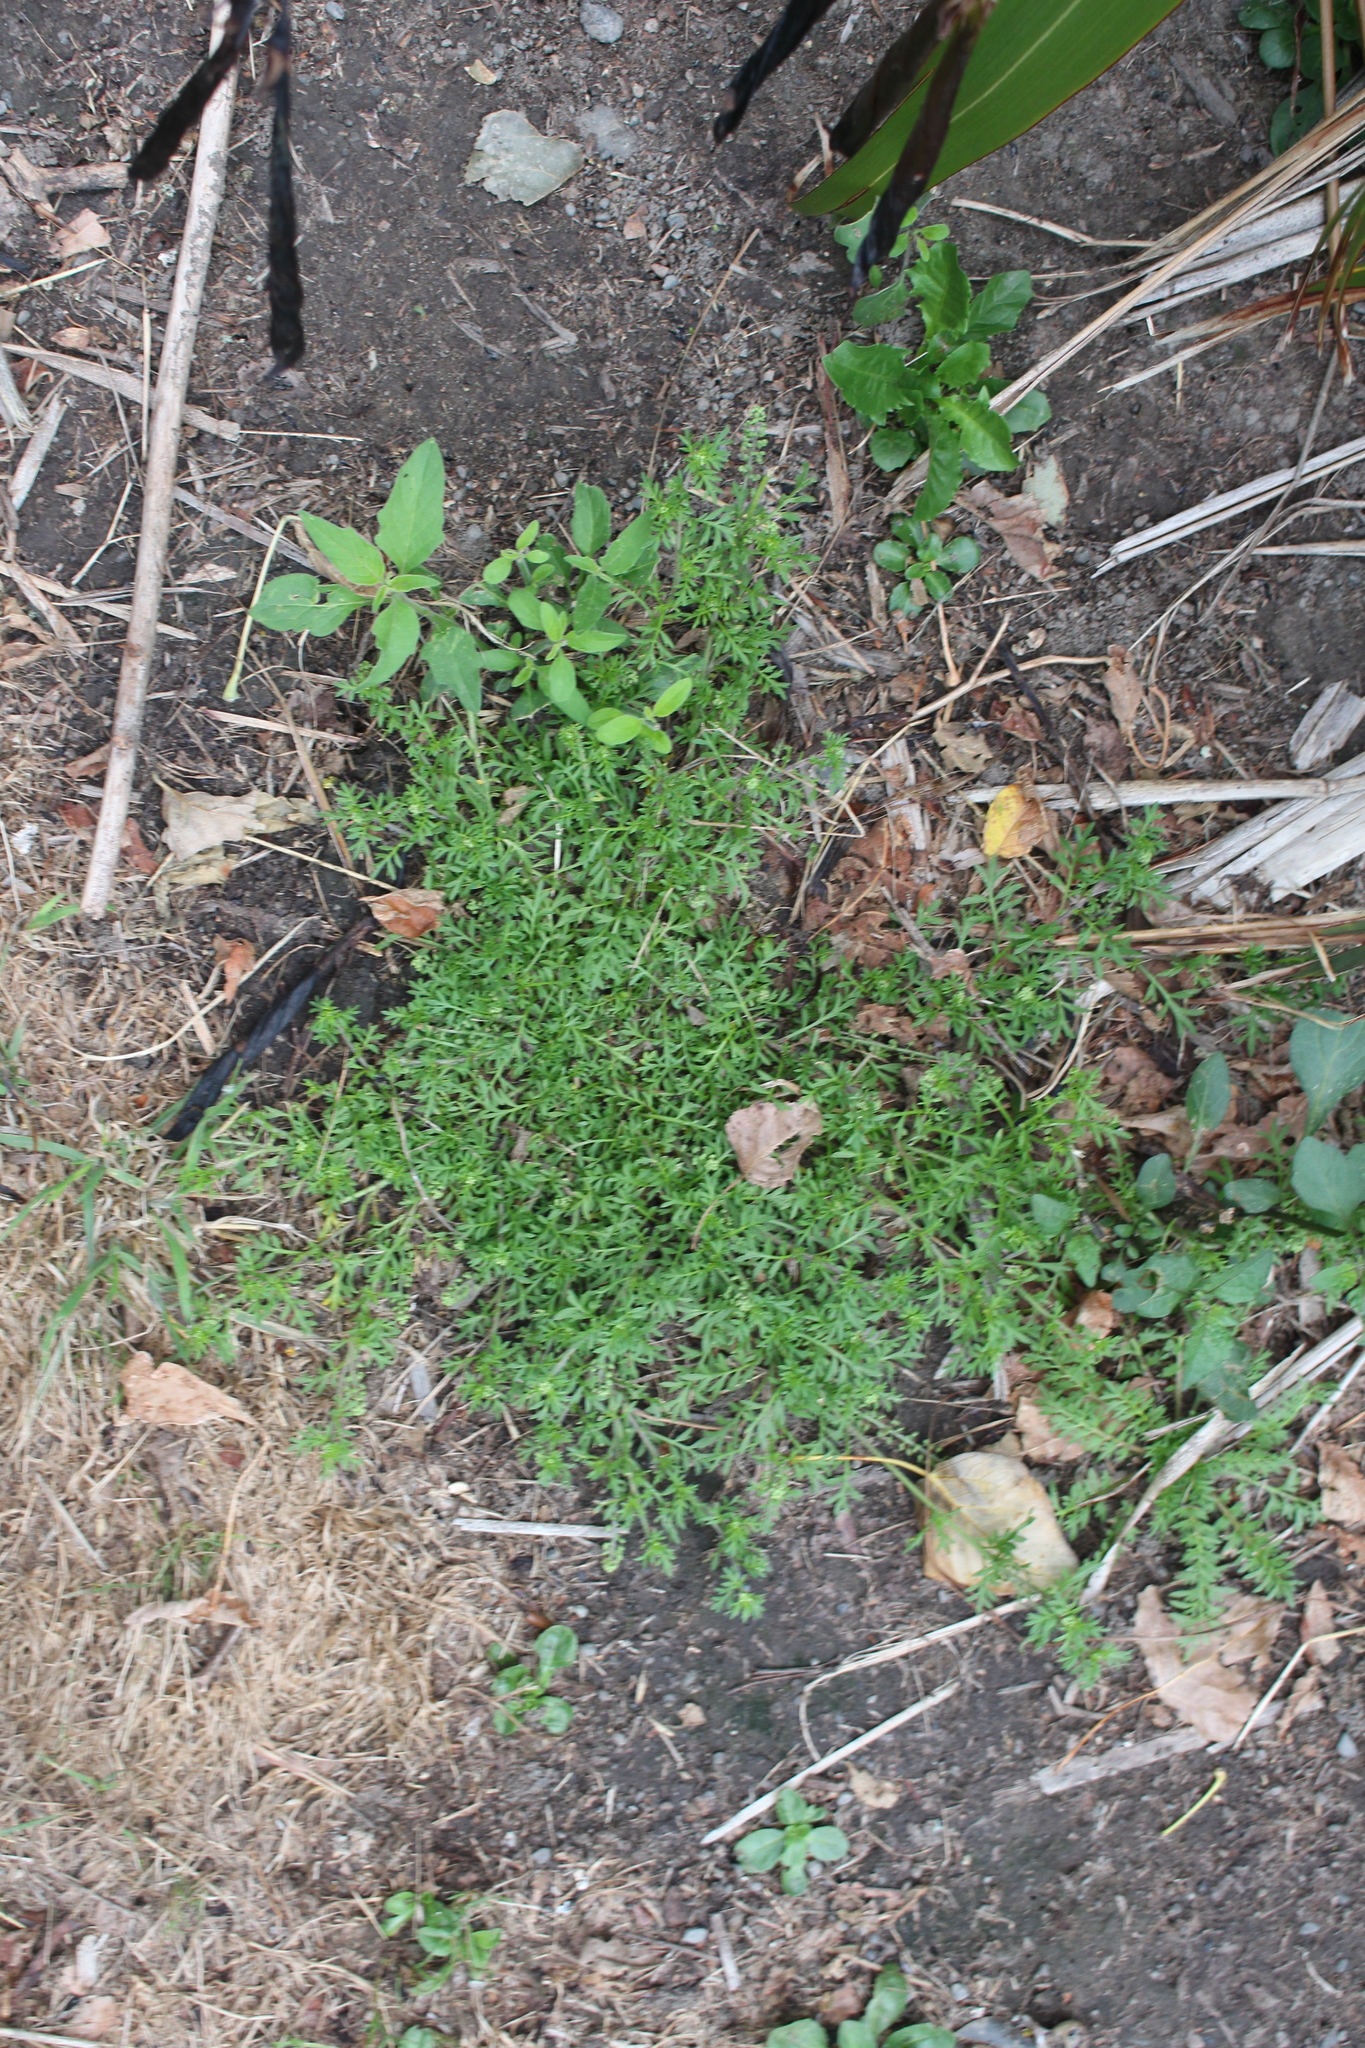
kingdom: Plantae
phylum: Tracheophyta
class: Magnoliopsida
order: Brassicales
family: Brassicaceae
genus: Lepidium
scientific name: Lepidium didymum
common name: Lesser swinecress
